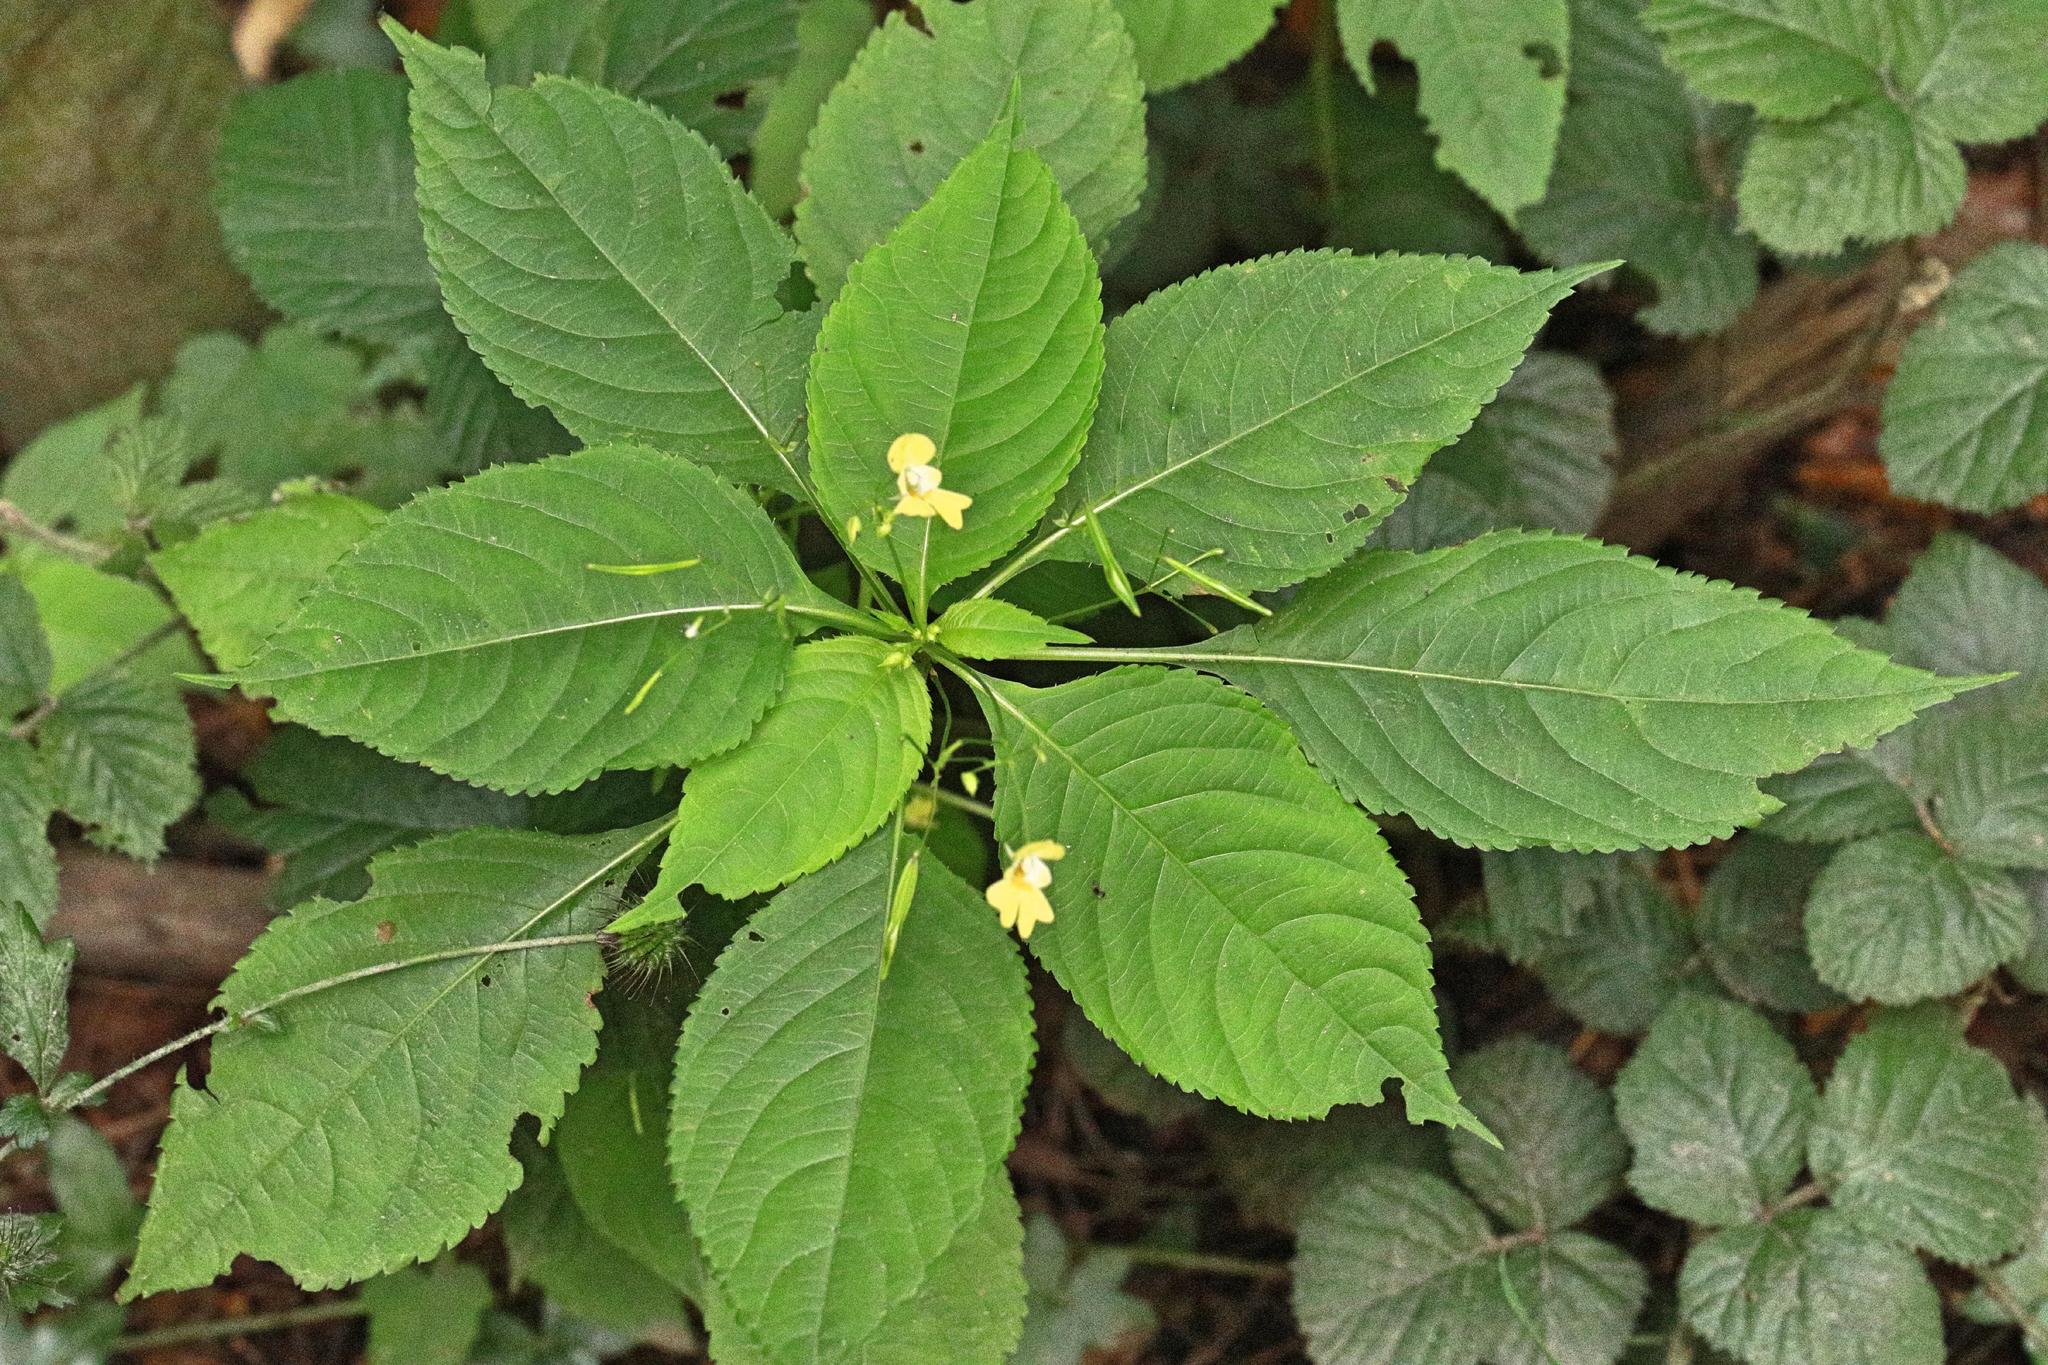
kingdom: Plantae
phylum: Tracheophyta
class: Magnoliopsida
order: Ericales
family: Balsaminaceae
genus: Impatiens
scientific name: Impatiens parviflora
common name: Small balsam
